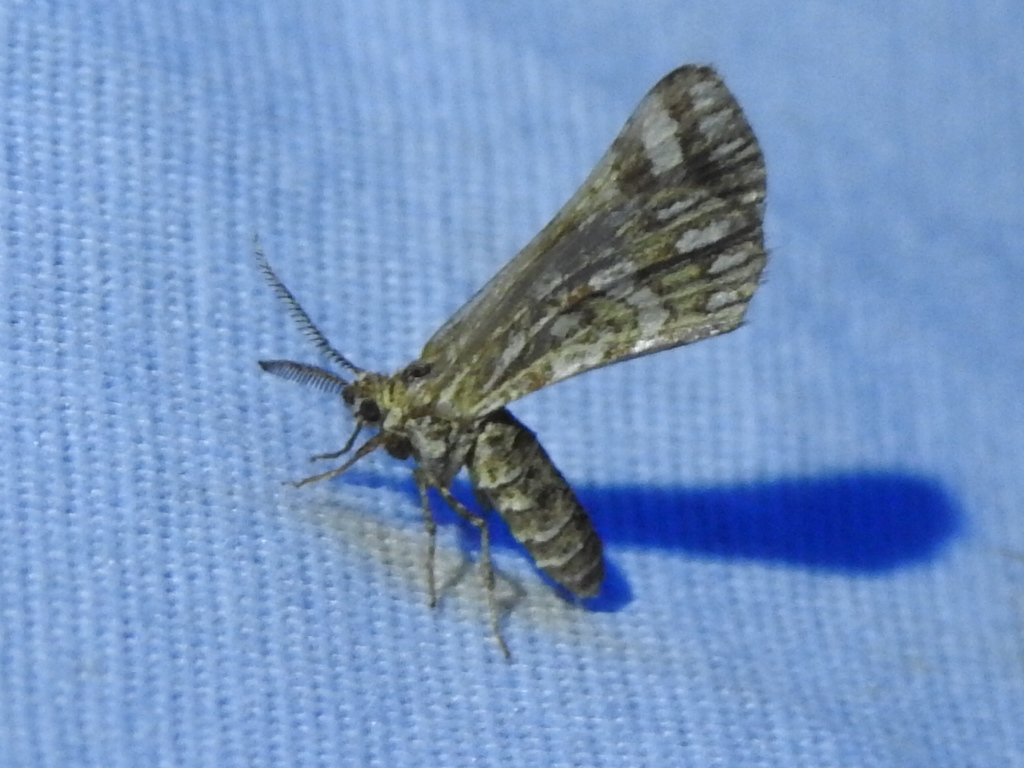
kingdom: Animalia
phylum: Arthropoda
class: Insecta
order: Lepidoptera
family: Geometridae
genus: Narraga
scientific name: Narraga fimetaria
